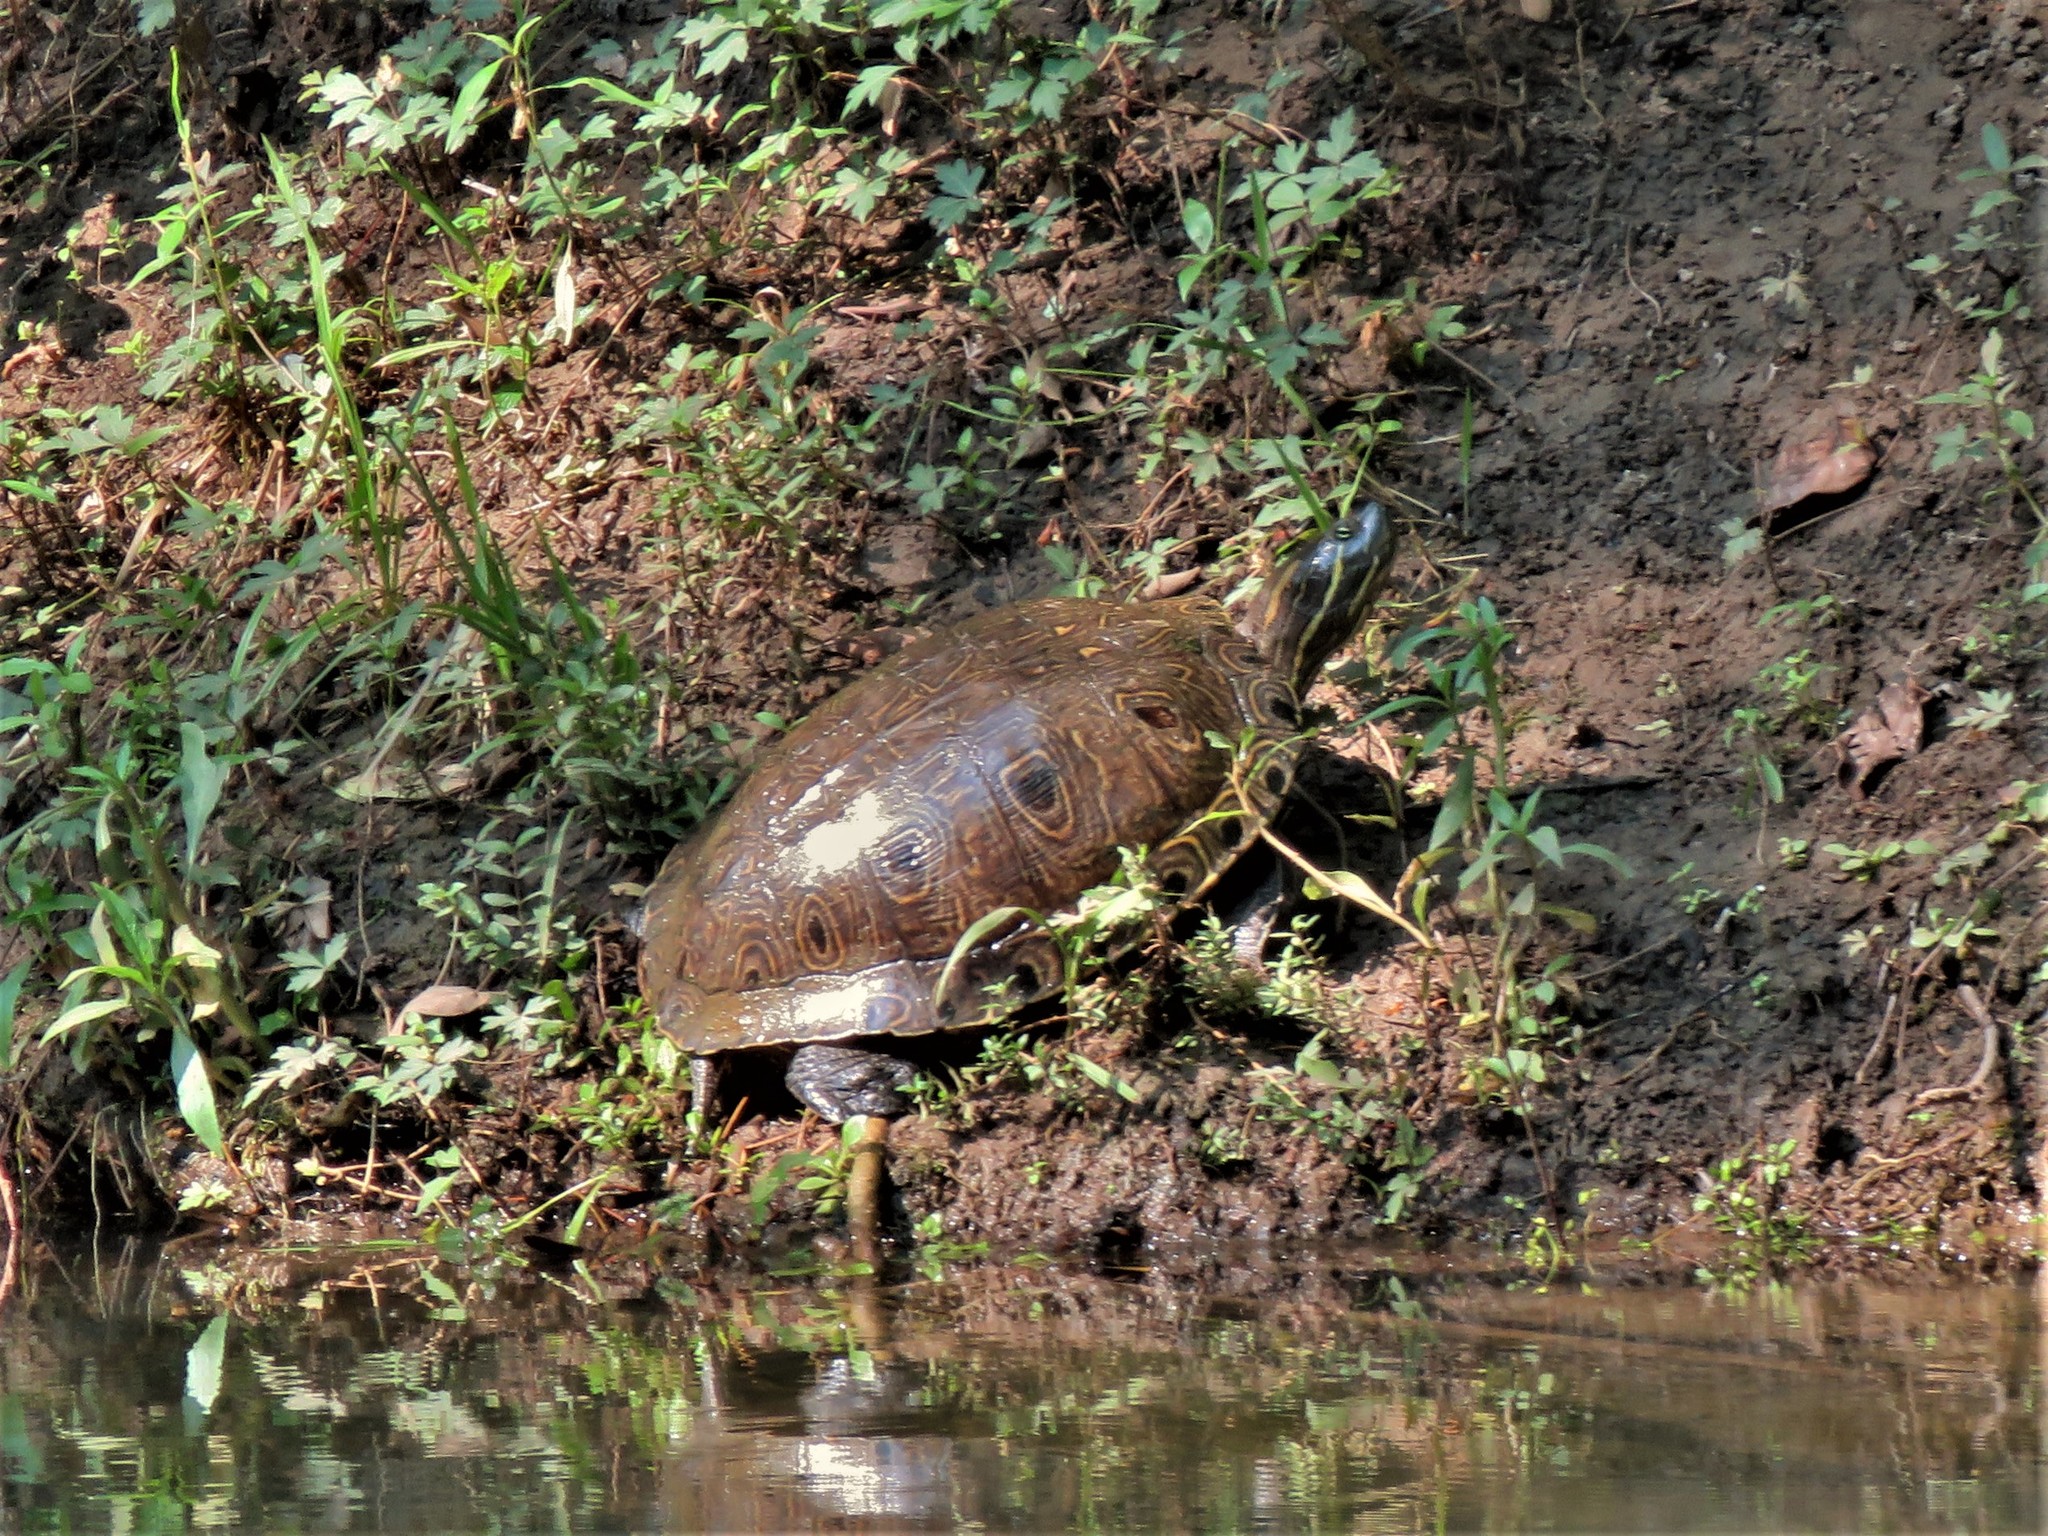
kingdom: Animalia
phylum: Chordata
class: Testudines
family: Emydidae
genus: Trachemys
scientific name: Trachemys venusta
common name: Mesoamerican slider
